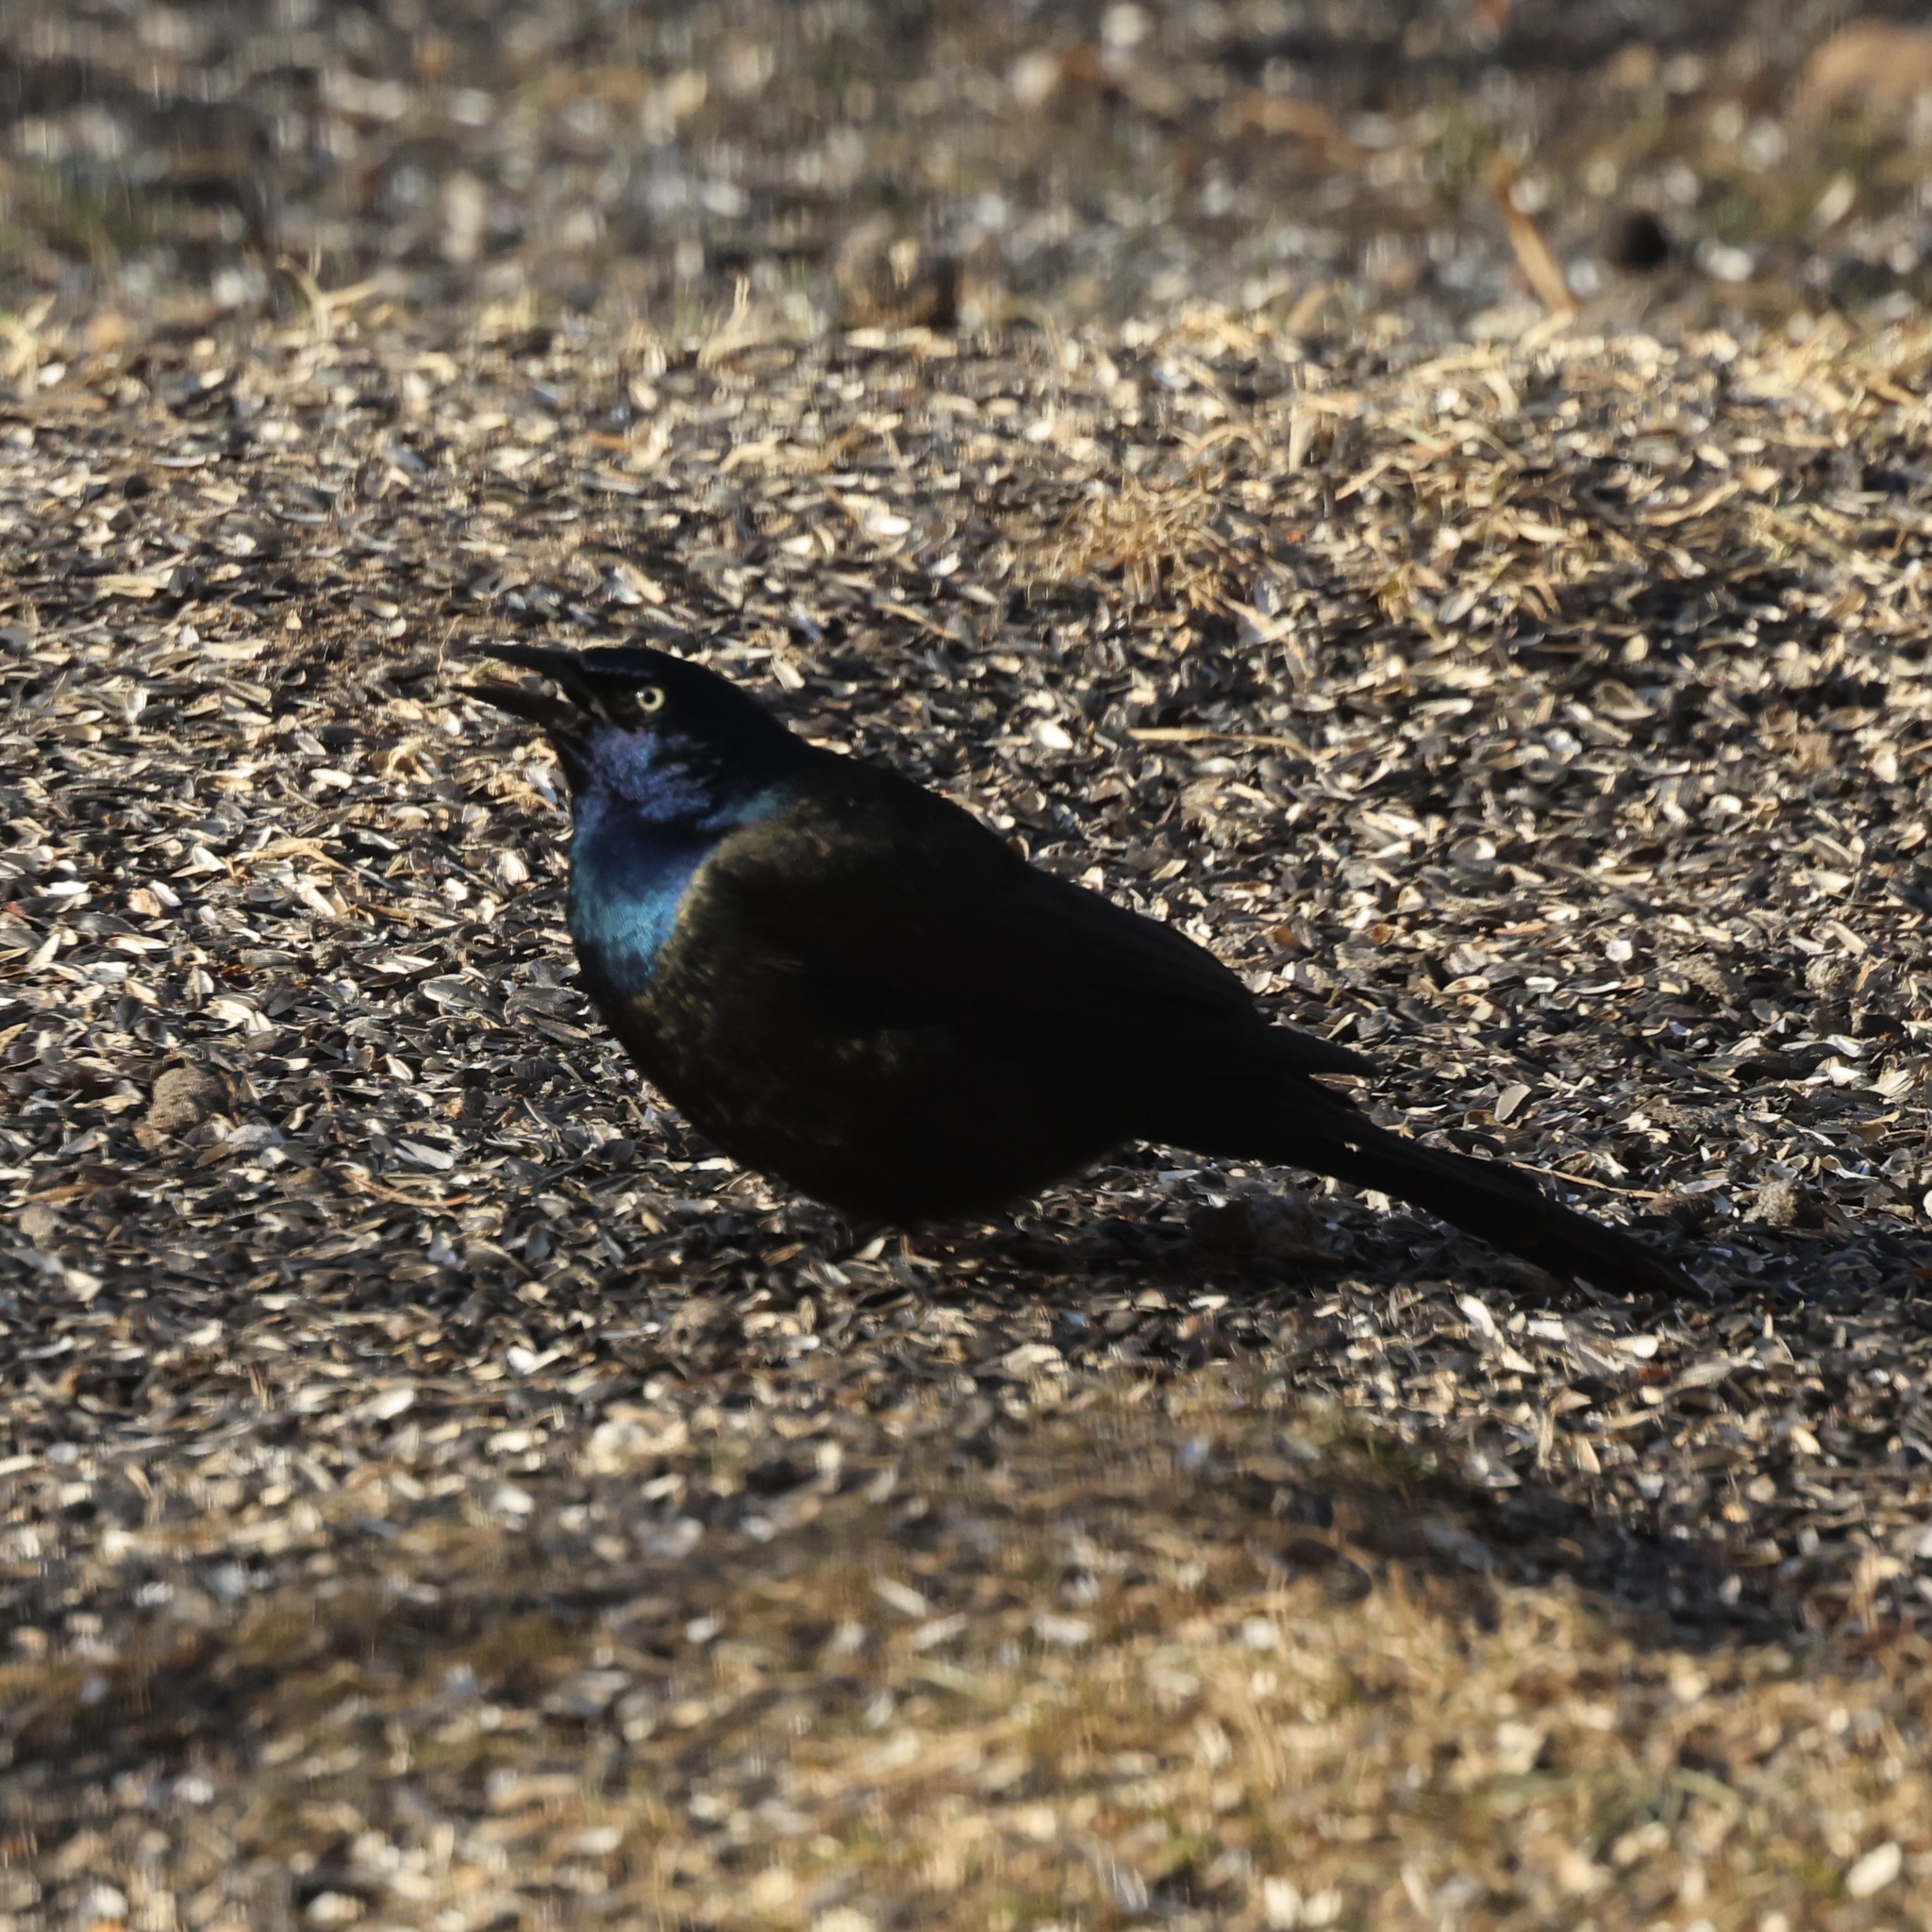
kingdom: Animalia
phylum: Chordata
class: Aves
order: Passeriformes
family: Icteridae
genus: Quiscalus
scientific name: Quiscalus quiscula
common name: Common grackle
